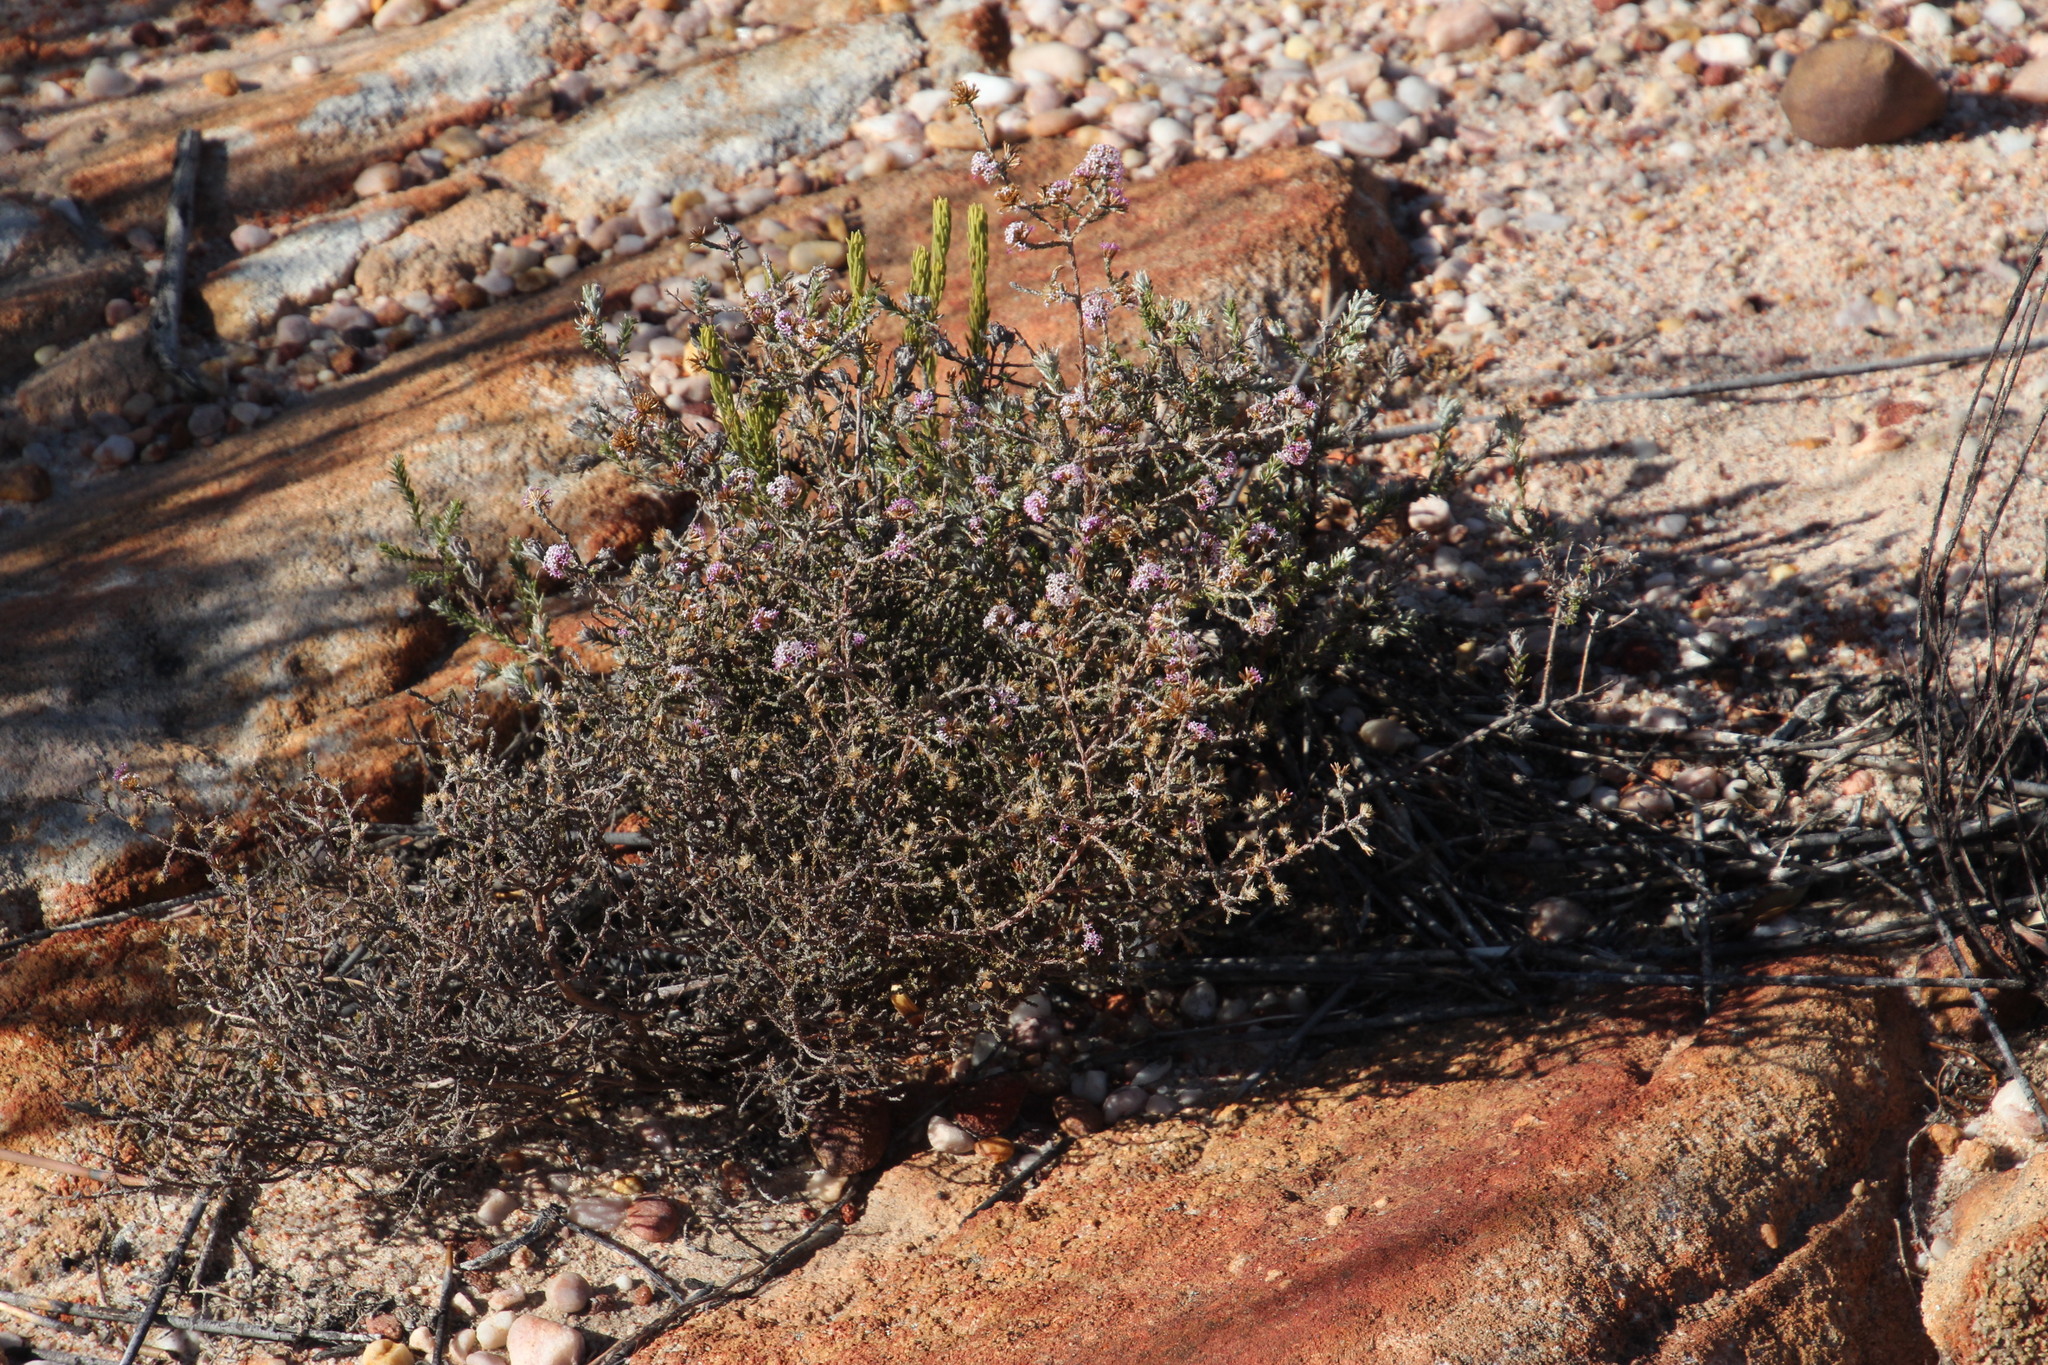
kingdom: Plantae
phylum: Tracheophyta
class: Magnoliopsida
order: Asterales
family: Asteraceae
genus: Stoebe
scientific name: Stoebe fusca
